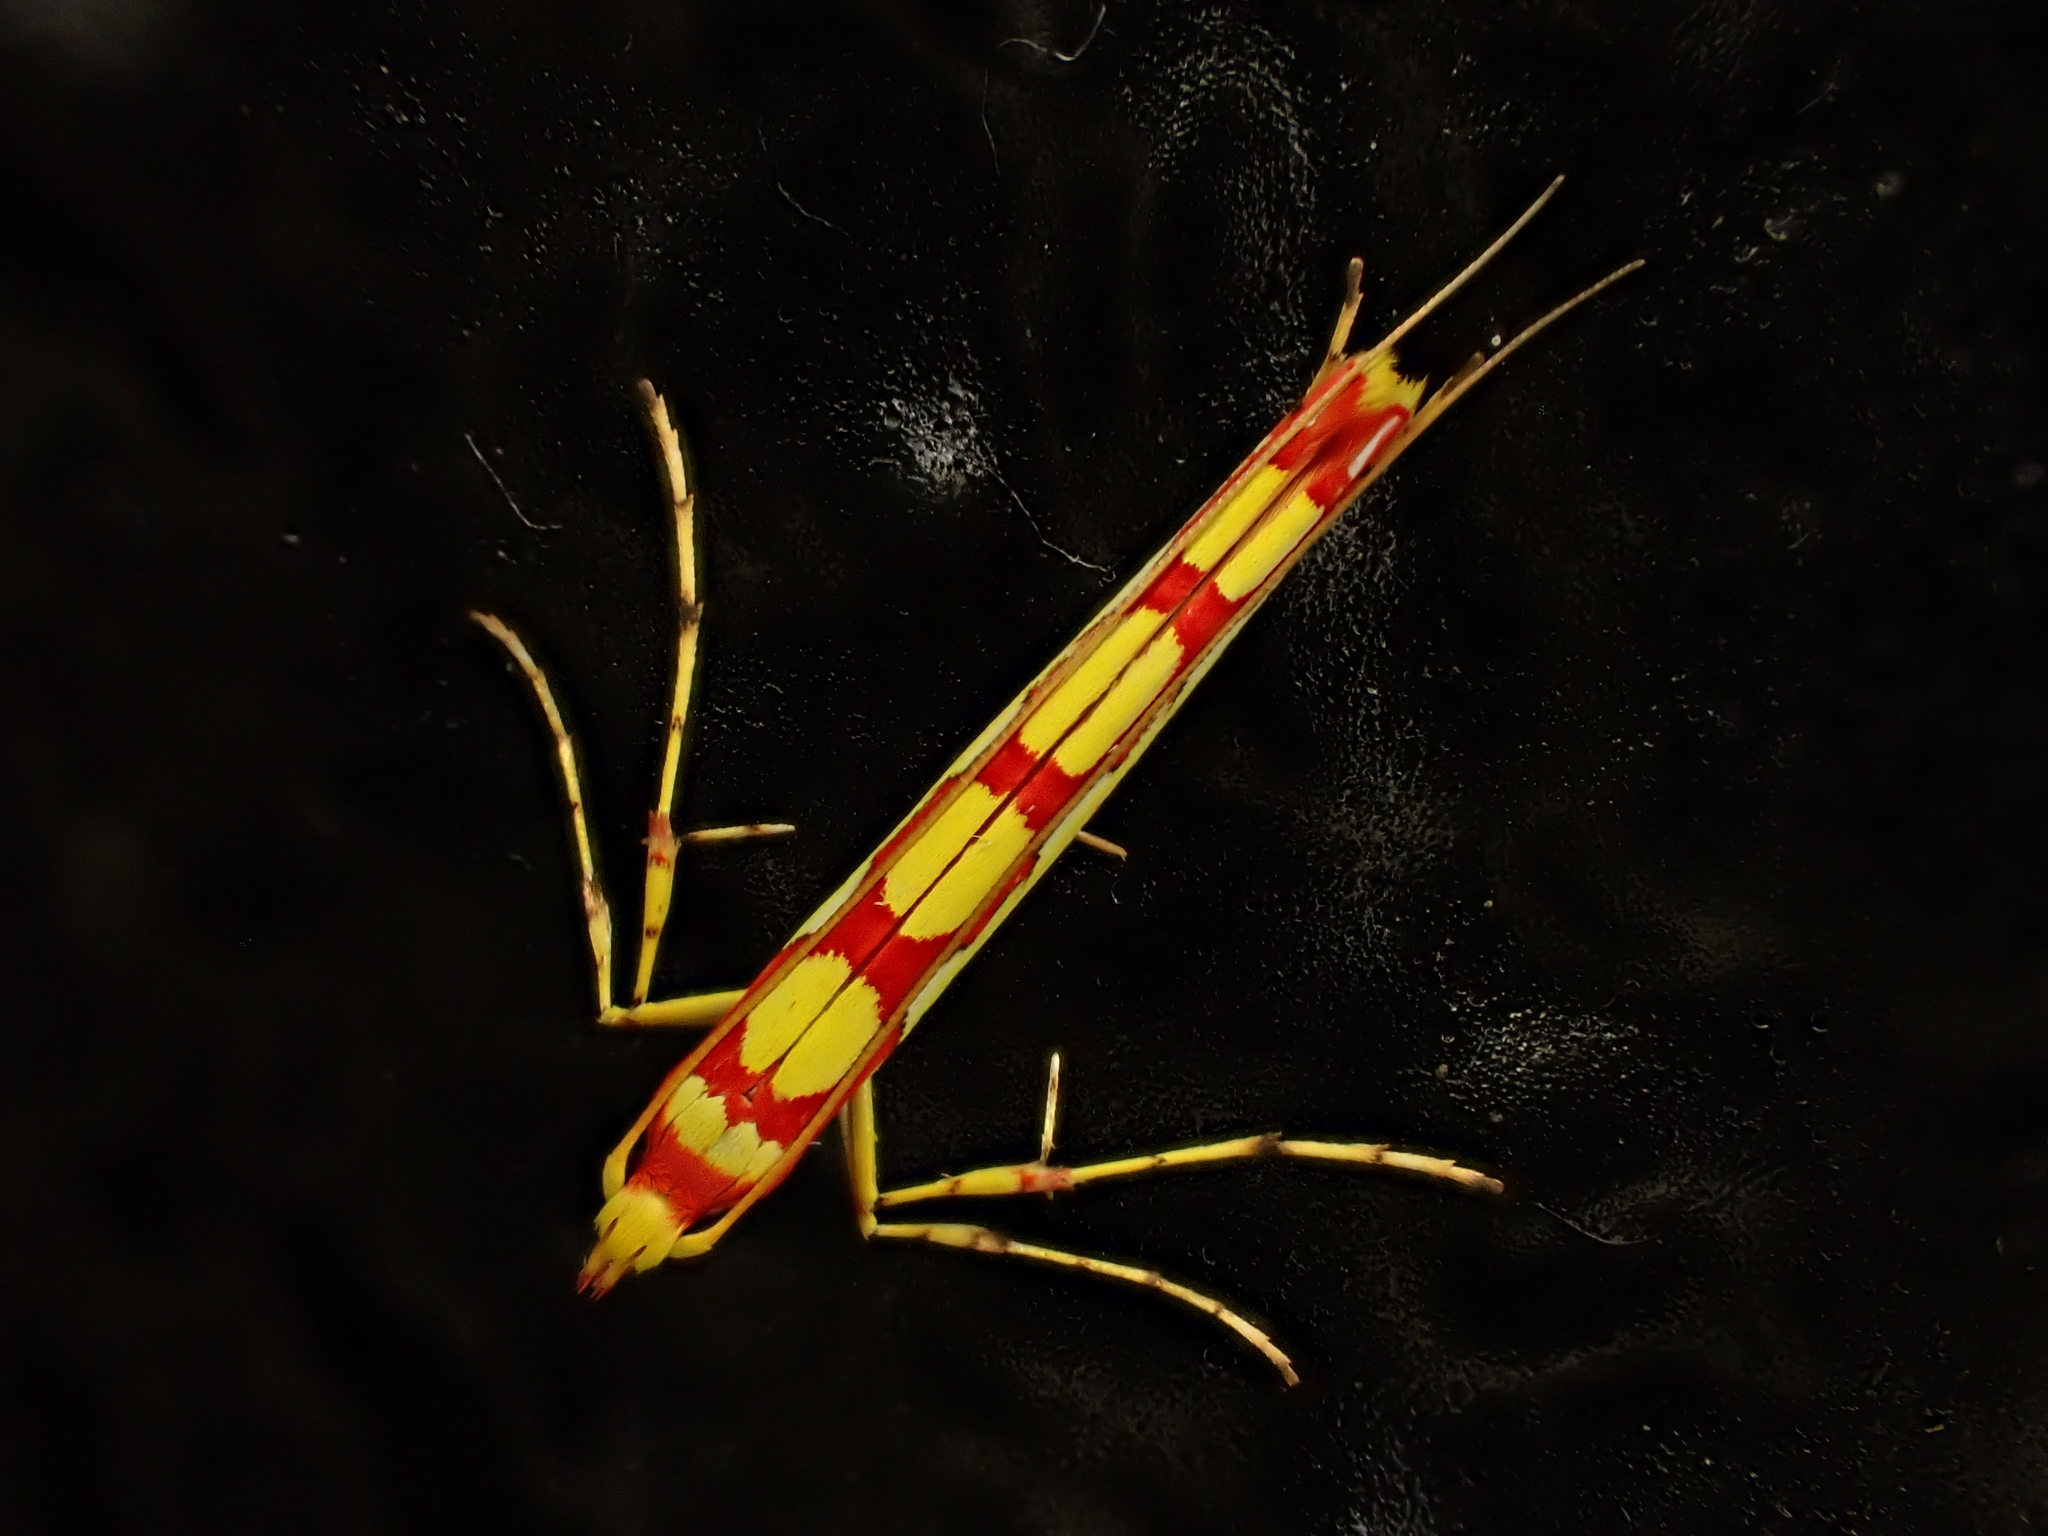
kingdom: Animalia
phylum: Arthropoda
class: Insecta
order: Lepidoptera
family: Gracillariidae
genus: Macarostola
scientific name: Macarostola miniella
